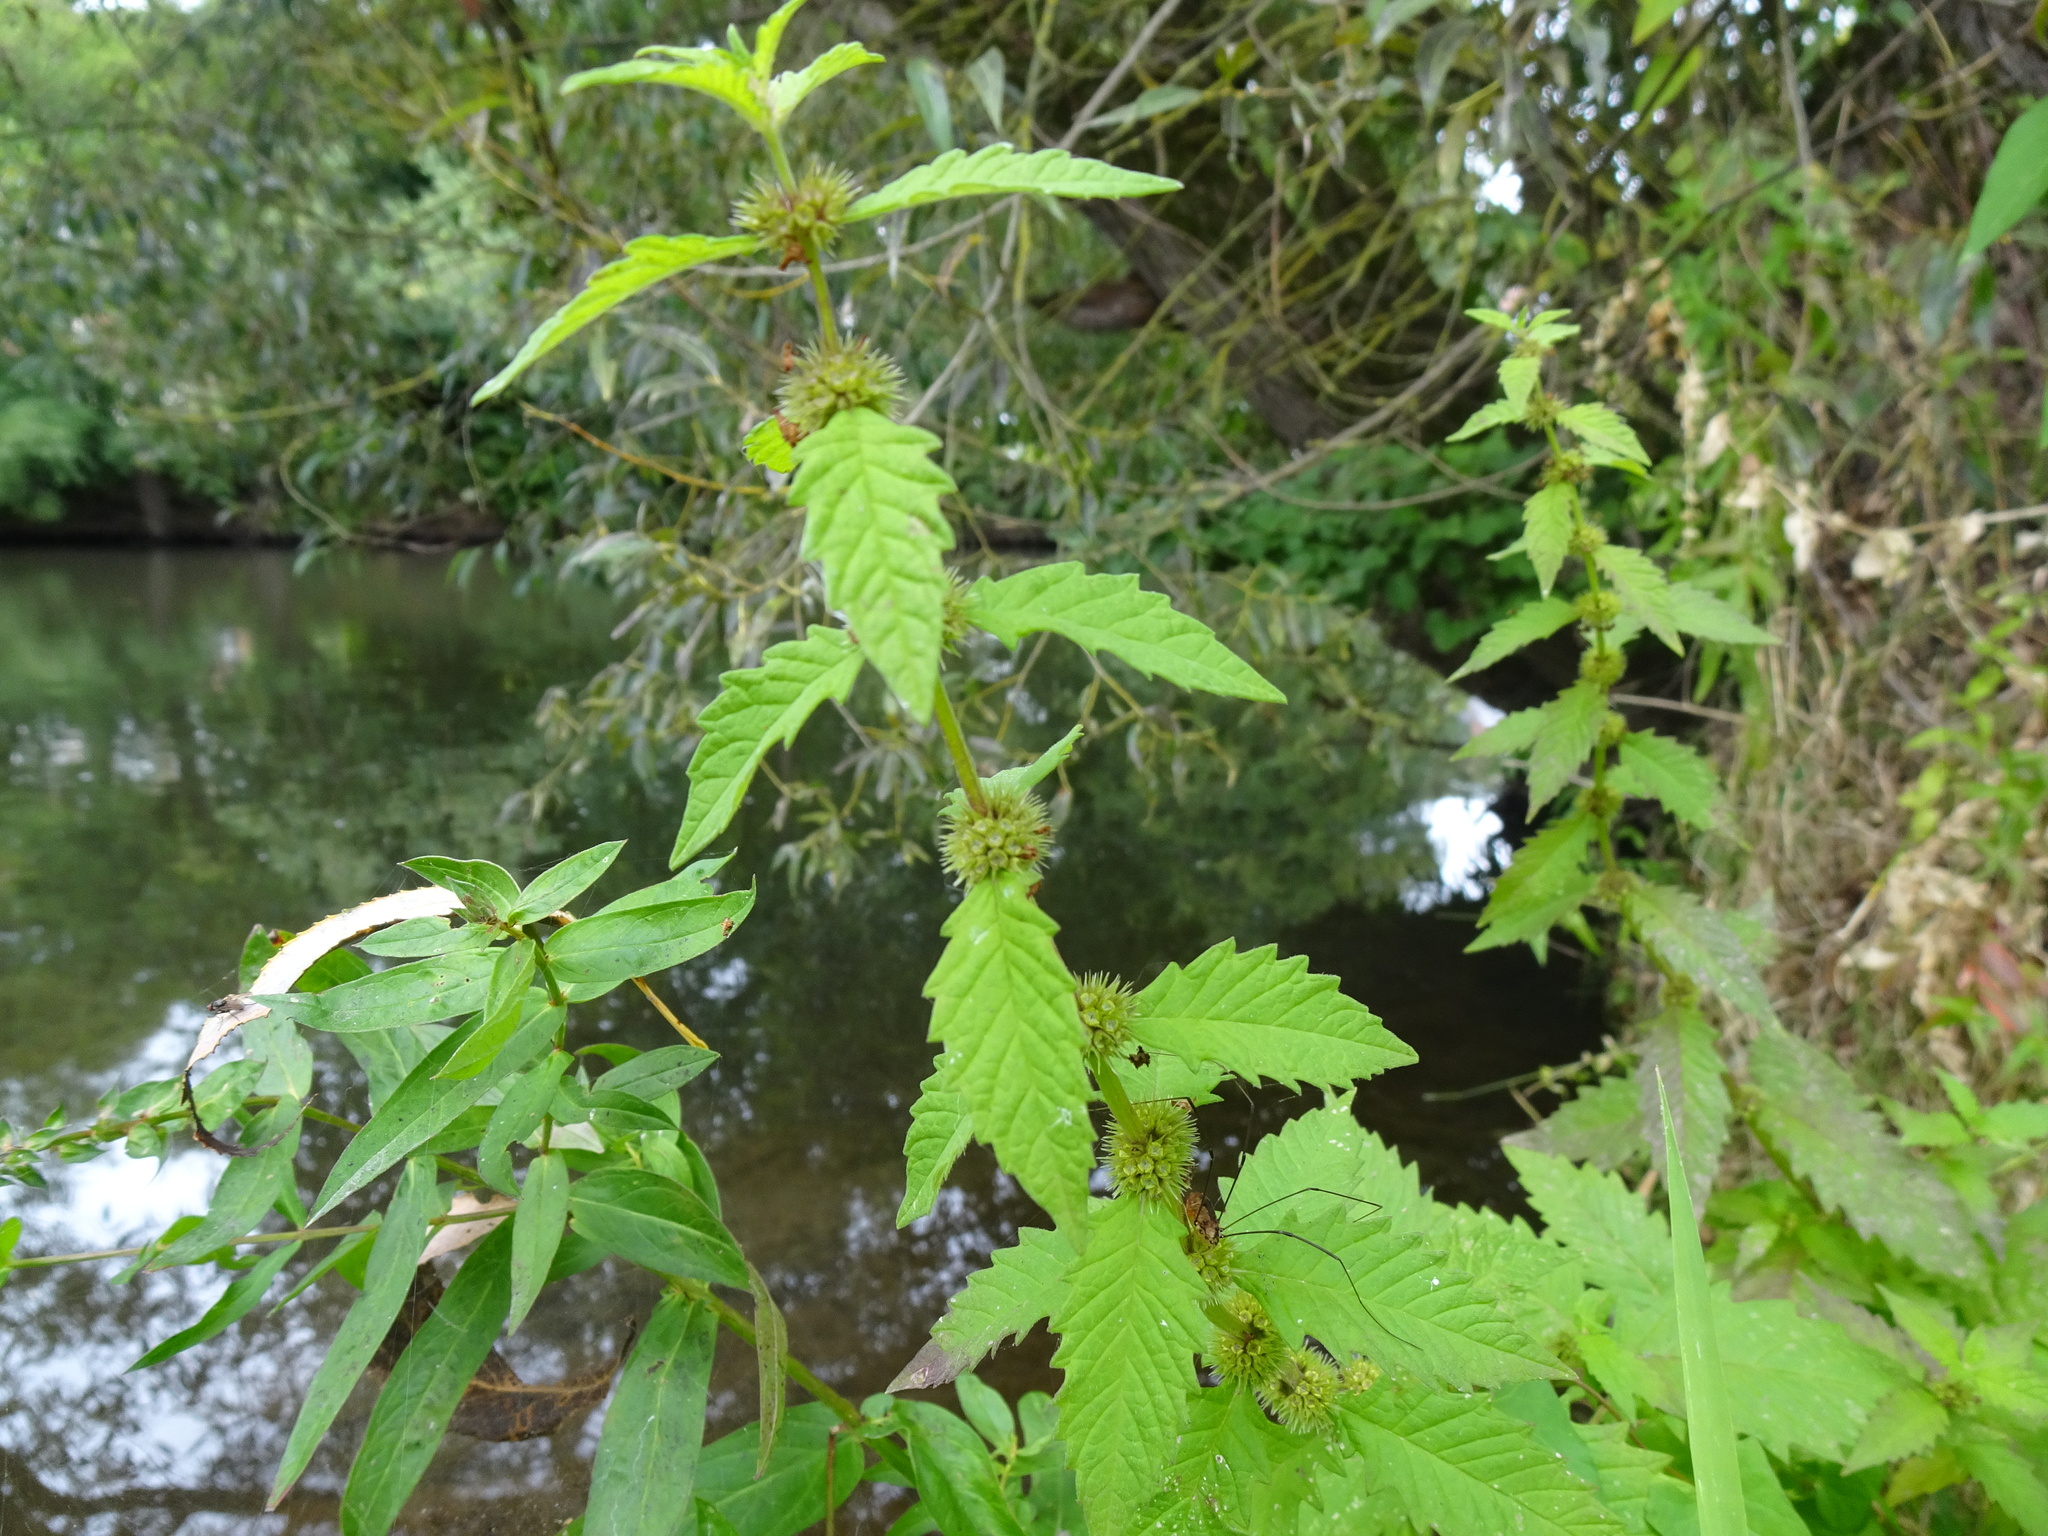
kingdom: Plantae
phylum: Tracheophyta
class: Magnoliopsida
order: Lamiales
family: Lamiaceae
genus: Lycopus
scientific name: Lycopus europaeus
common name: European bugleweed
